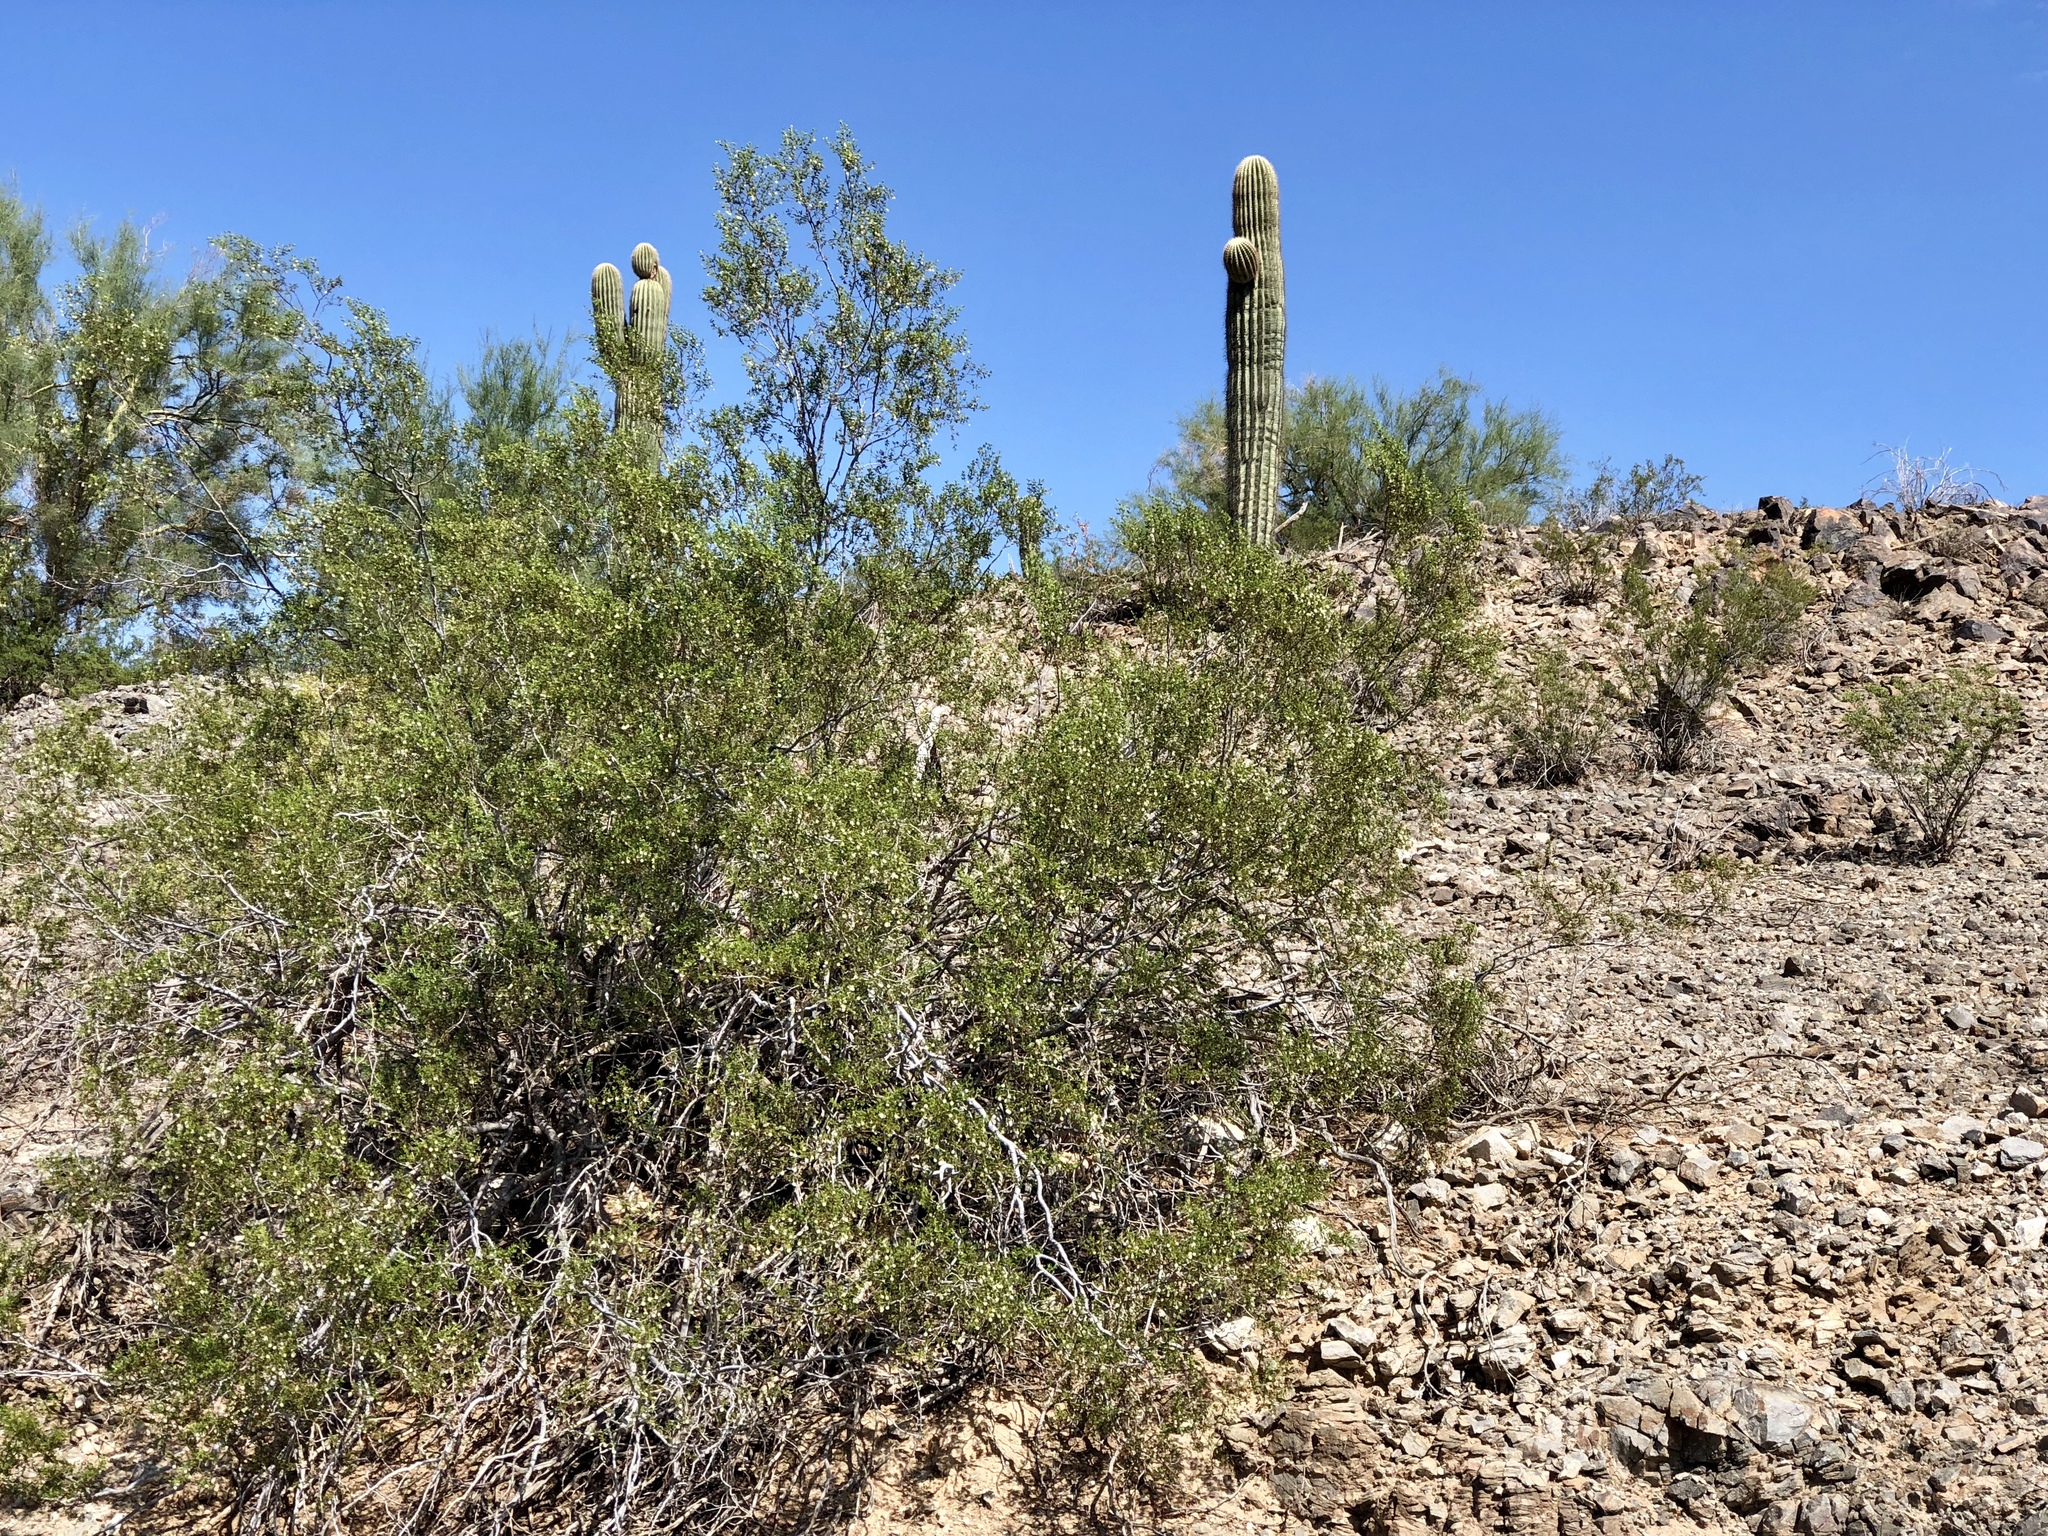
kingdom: Plantae
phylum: Tracheophyta
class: Magnoliopsida
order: Zygophyllales
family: Zygophyllaceae
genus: Larrea
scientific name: Larrea tridentata
